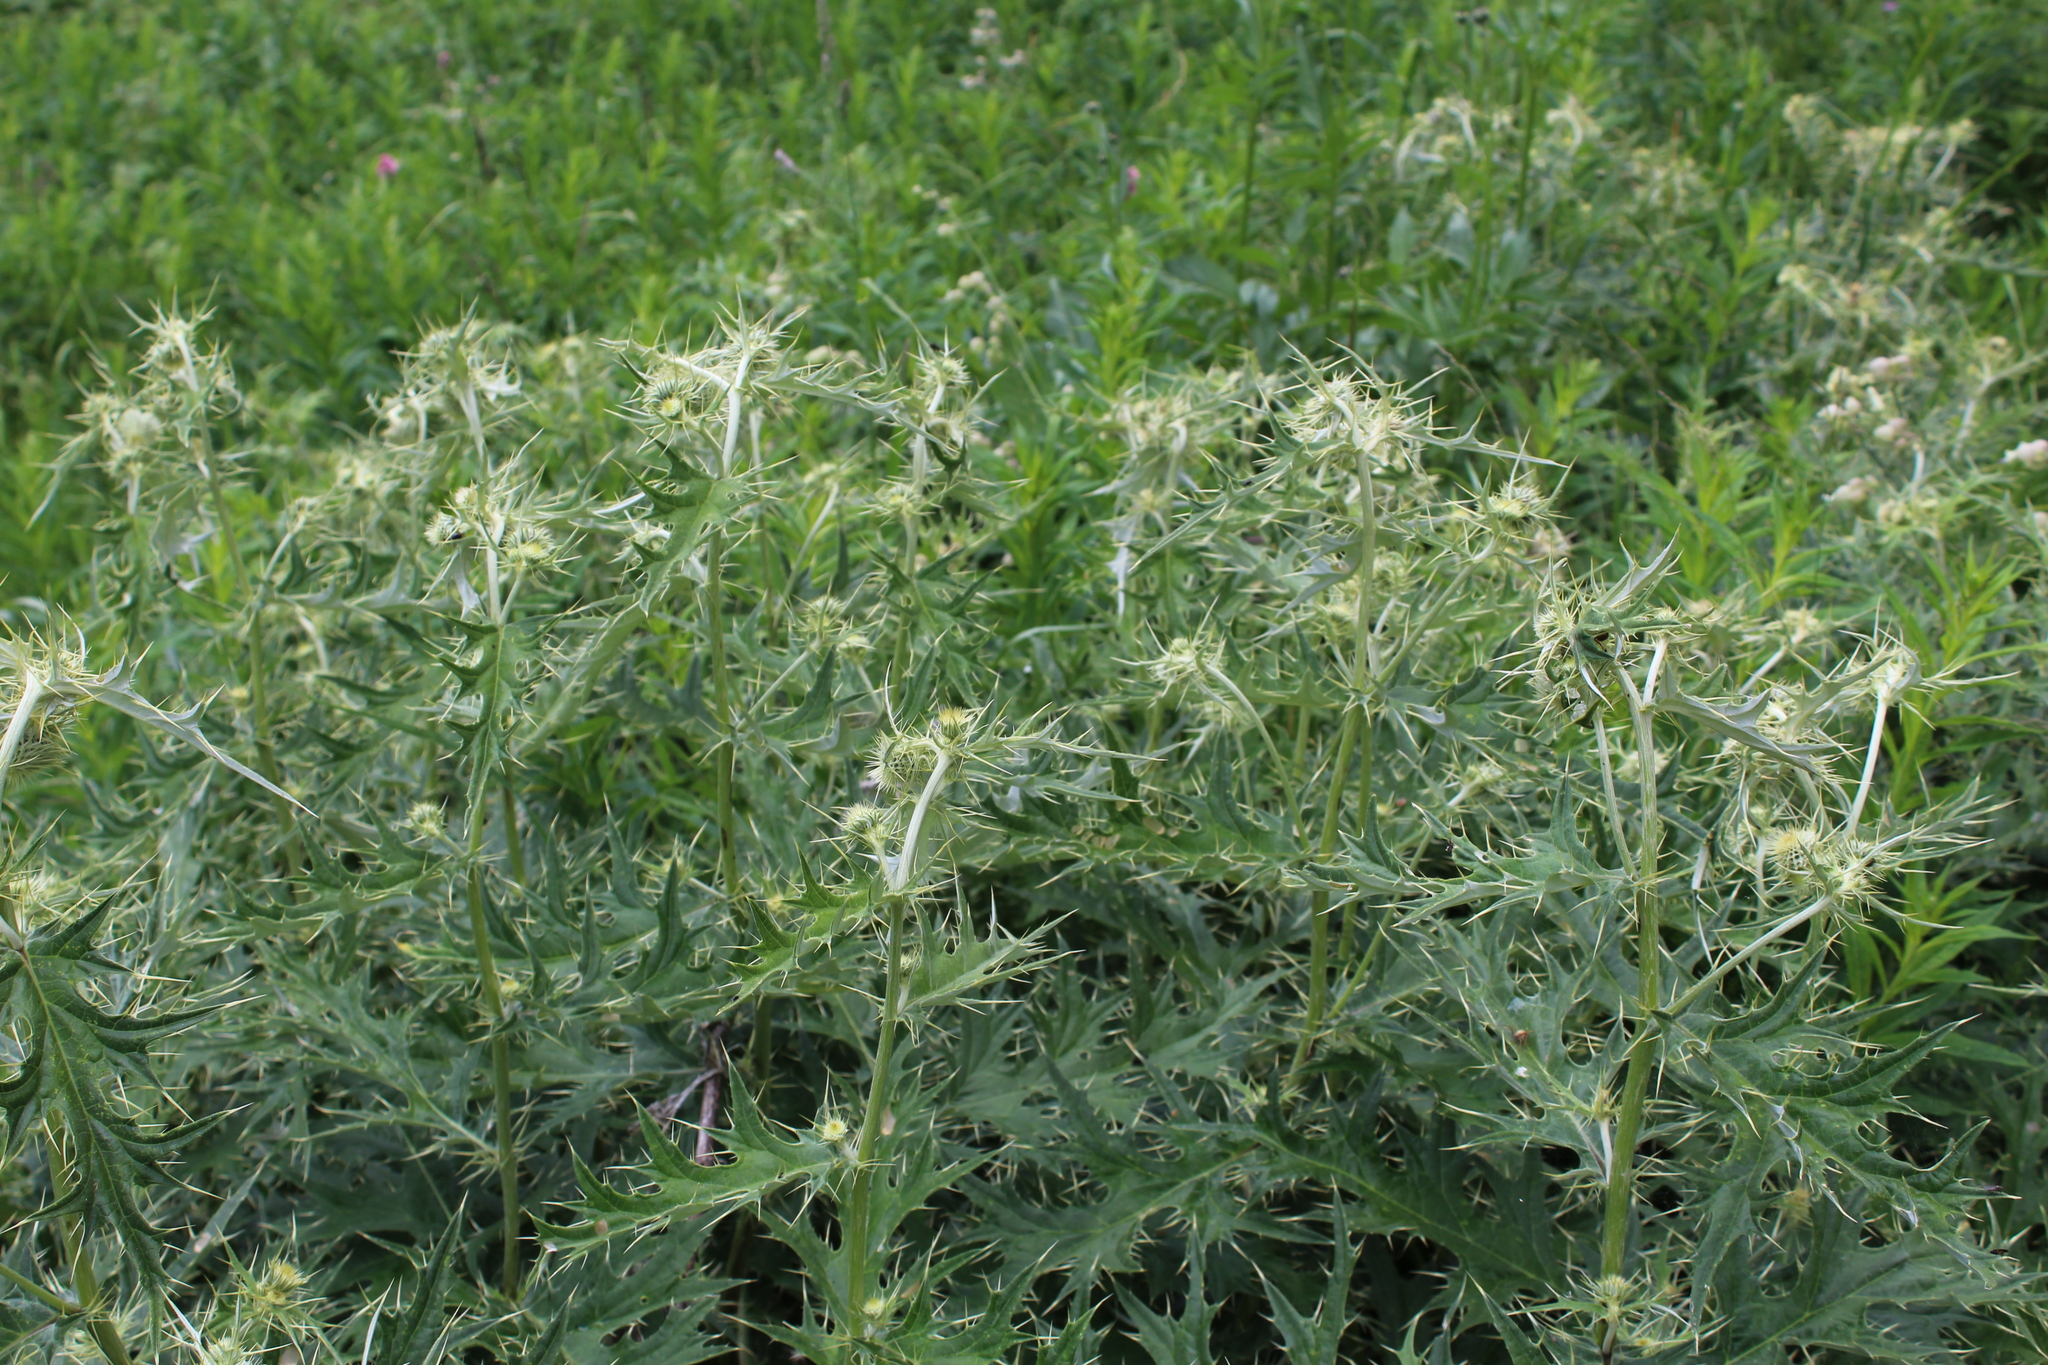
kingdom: Plantae
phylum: Tracheophyta
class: Magnoliopsida
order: Asterales
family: Asteraceae
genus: Lophiolepis
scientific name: Lophiolepis chlorocoma
